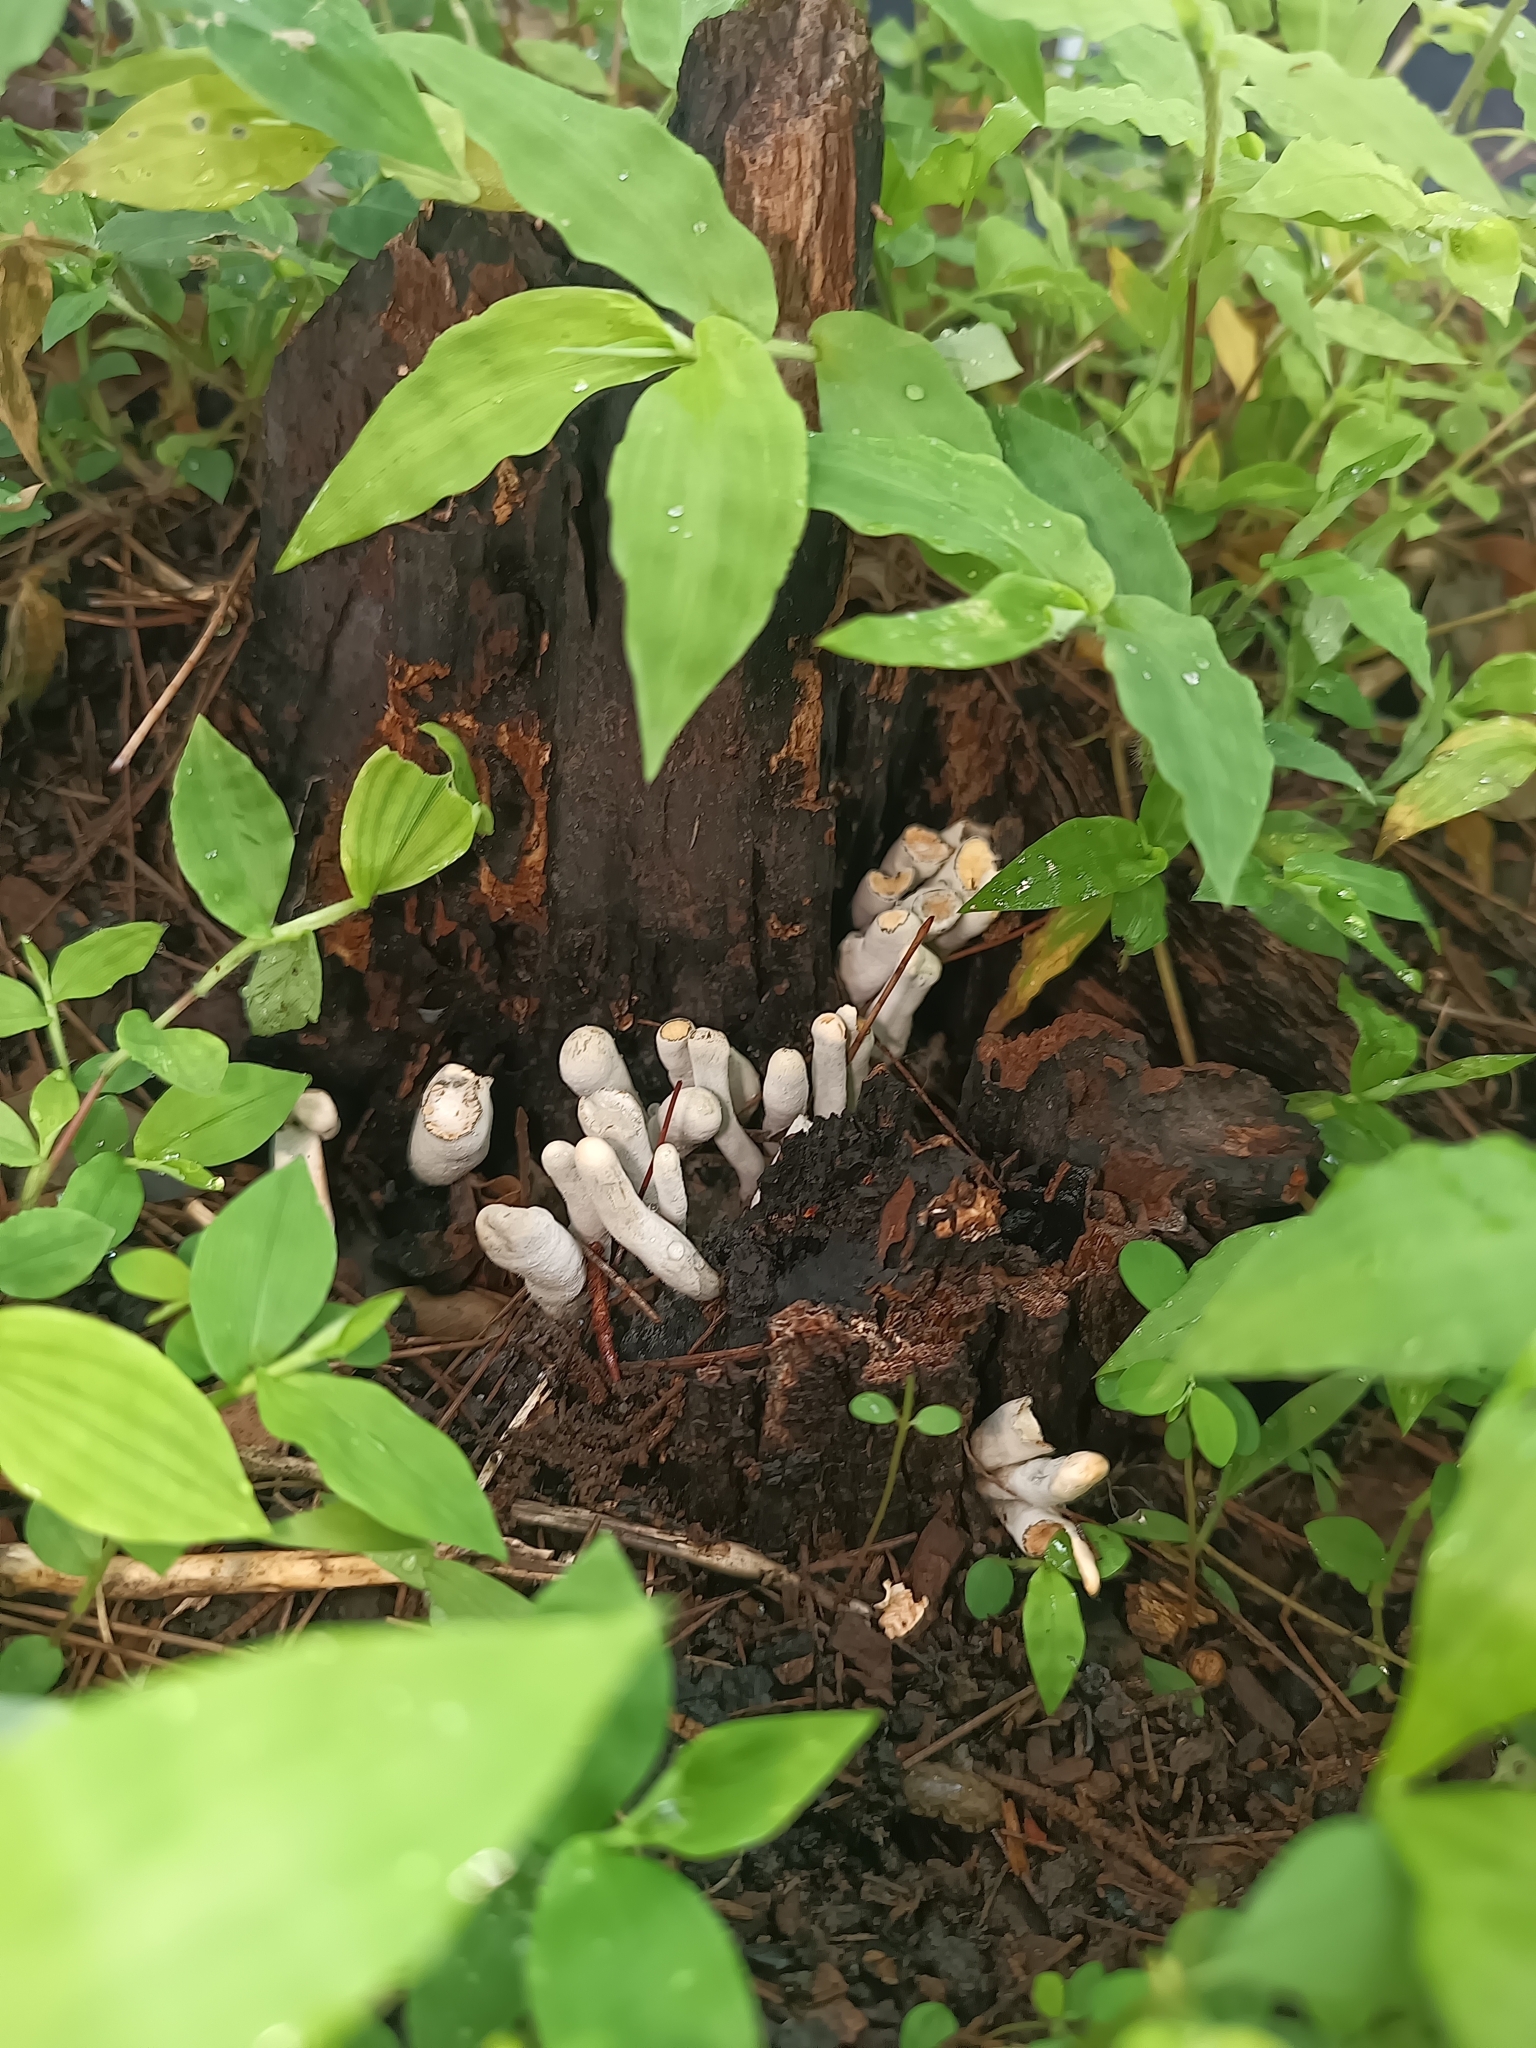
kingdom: Fungi
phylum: Ascomycota
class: Sordariomycetes
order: Xylariales
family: Xylariaceae
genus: Xylaria
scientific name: Xylaria polymorpha
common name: Dead man's fingers
